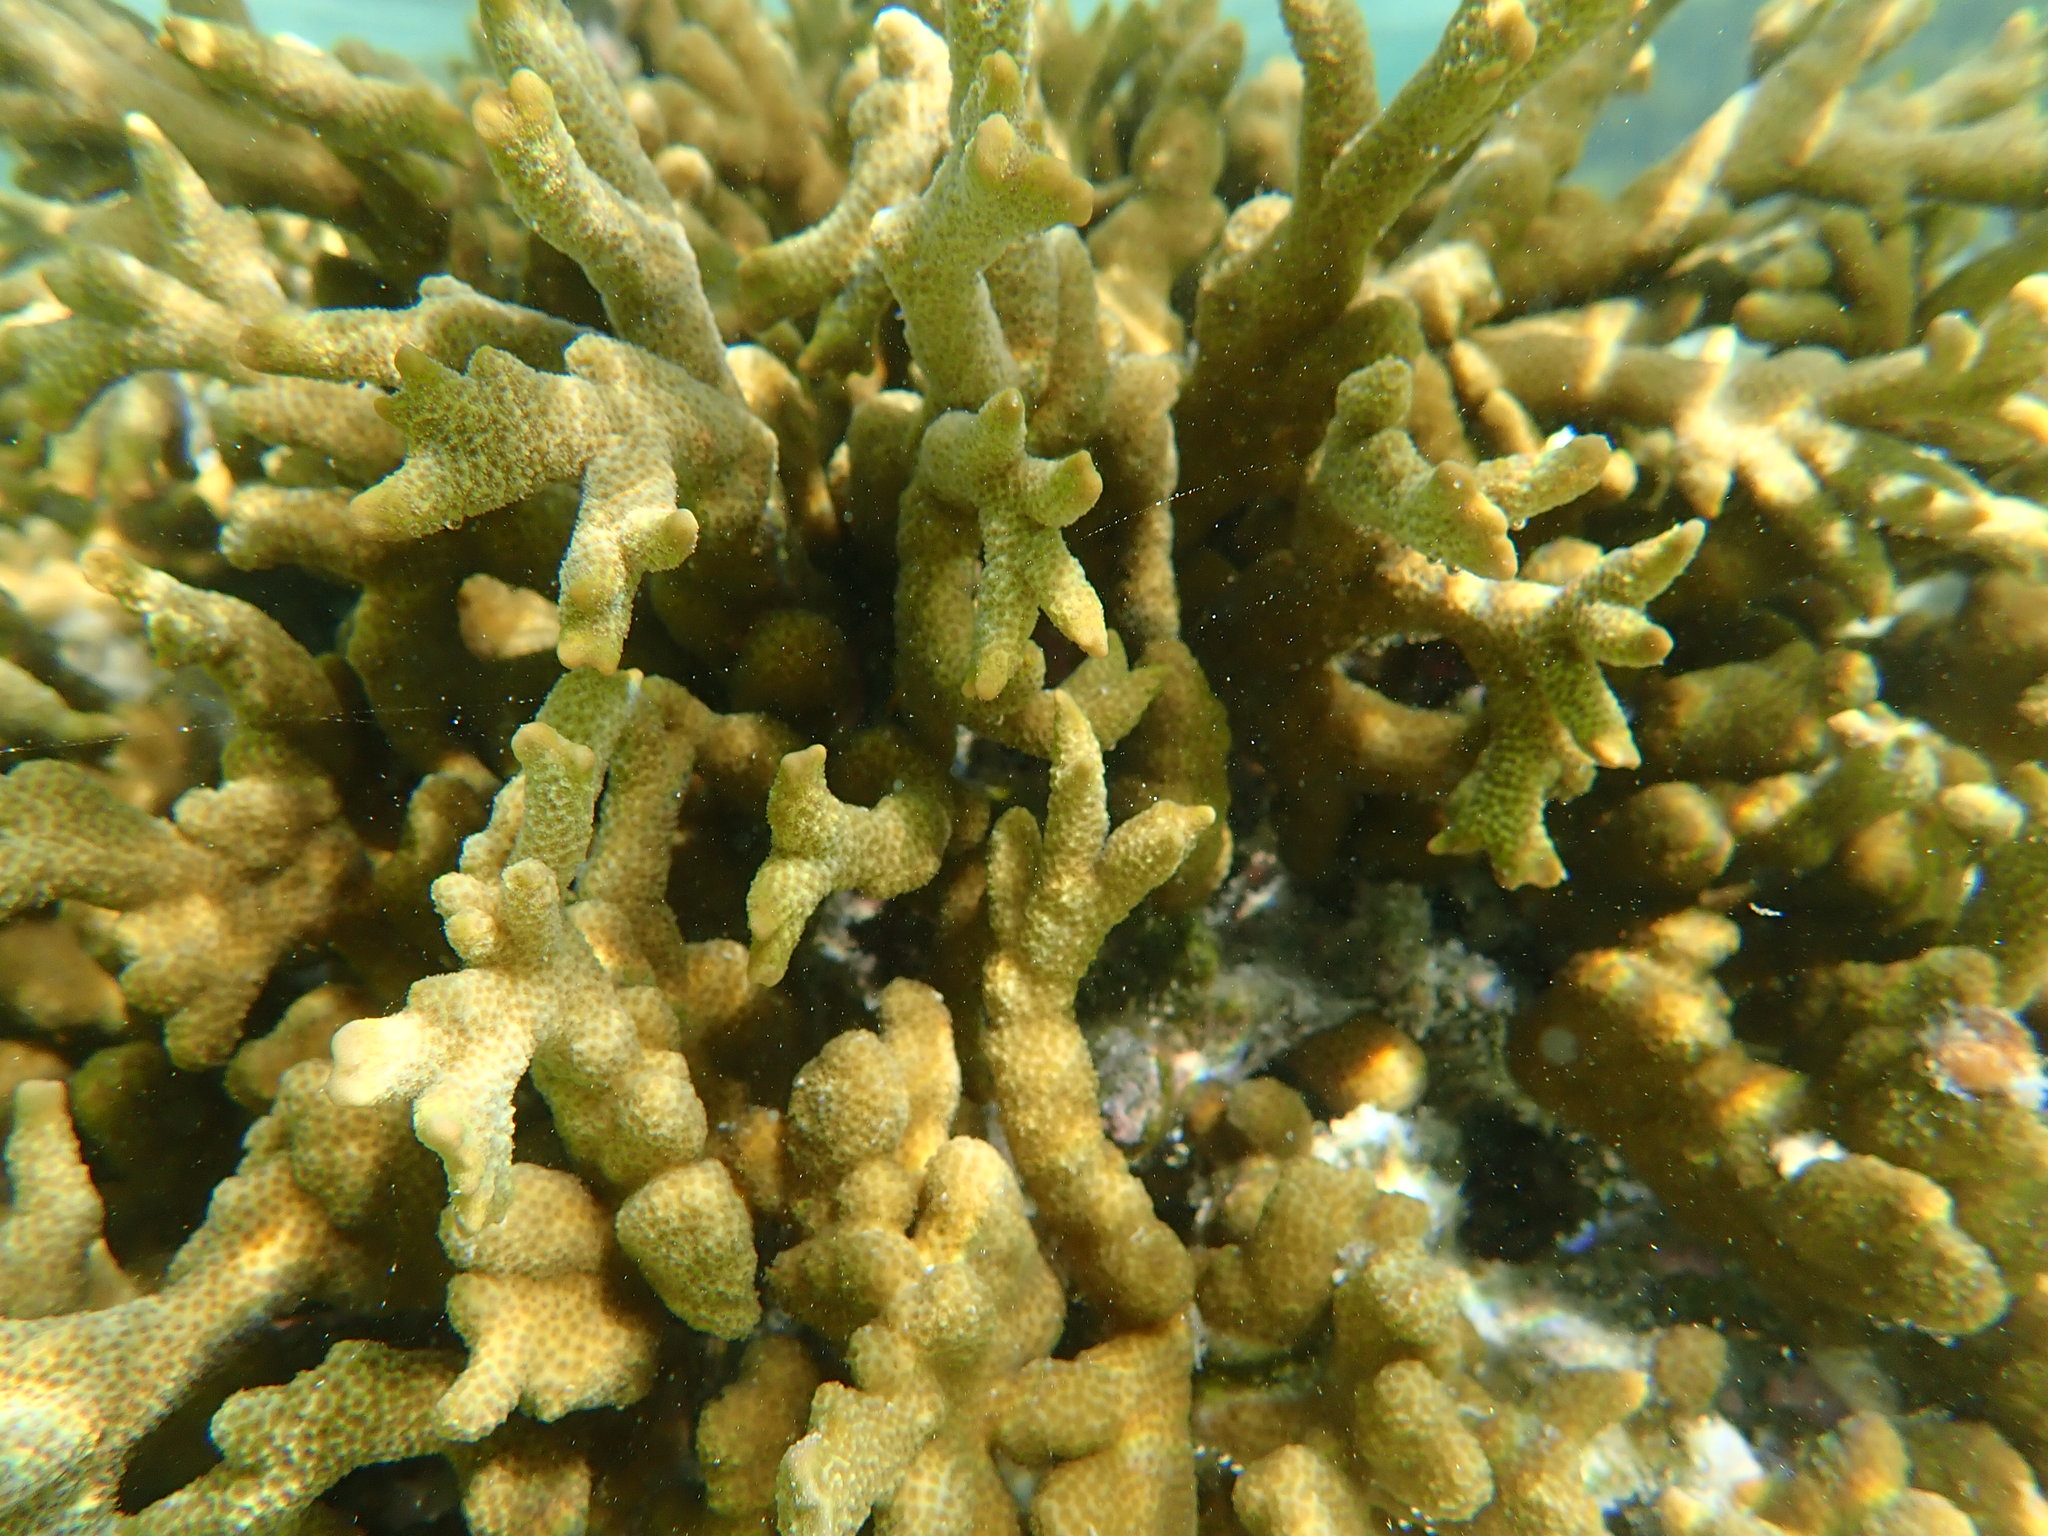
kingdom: Animalia
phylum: Cnidaria
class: Anthozoa
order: Scleractinia
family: Acroporidae
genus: Montipora
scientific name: Montipora digitata
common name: Pore coral
